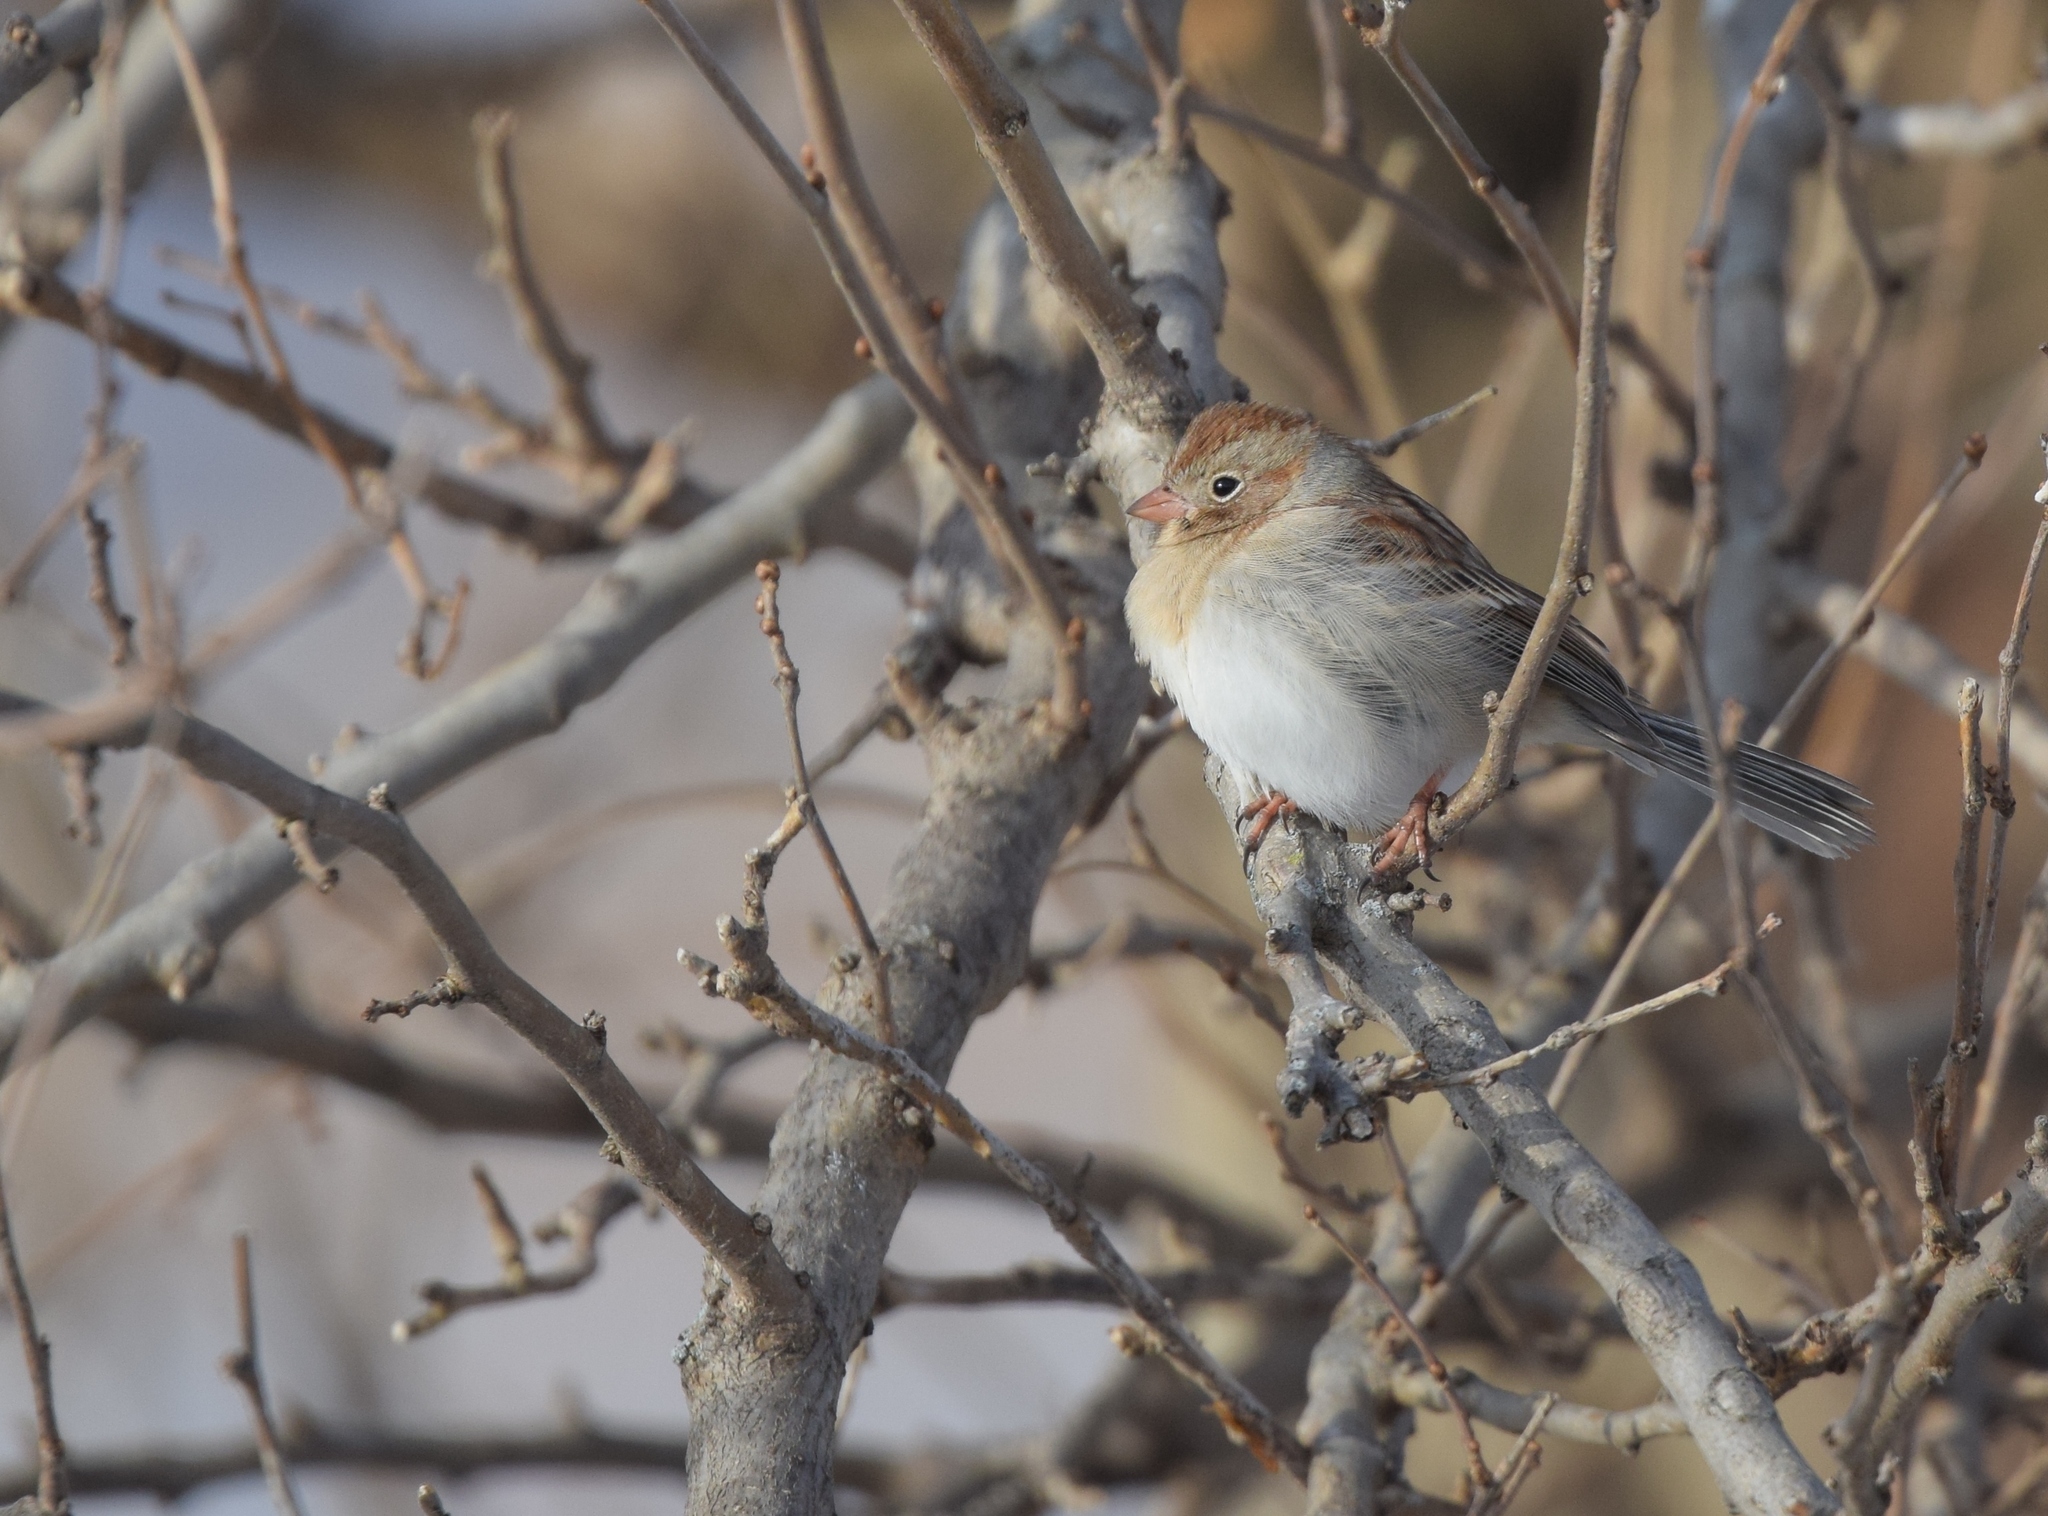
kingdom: Animalia
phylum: Chordata
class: Aves
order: Passeriformes
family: Passerellidae
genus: Spizella
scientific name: Spizella pusilla
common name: Field sparrow
